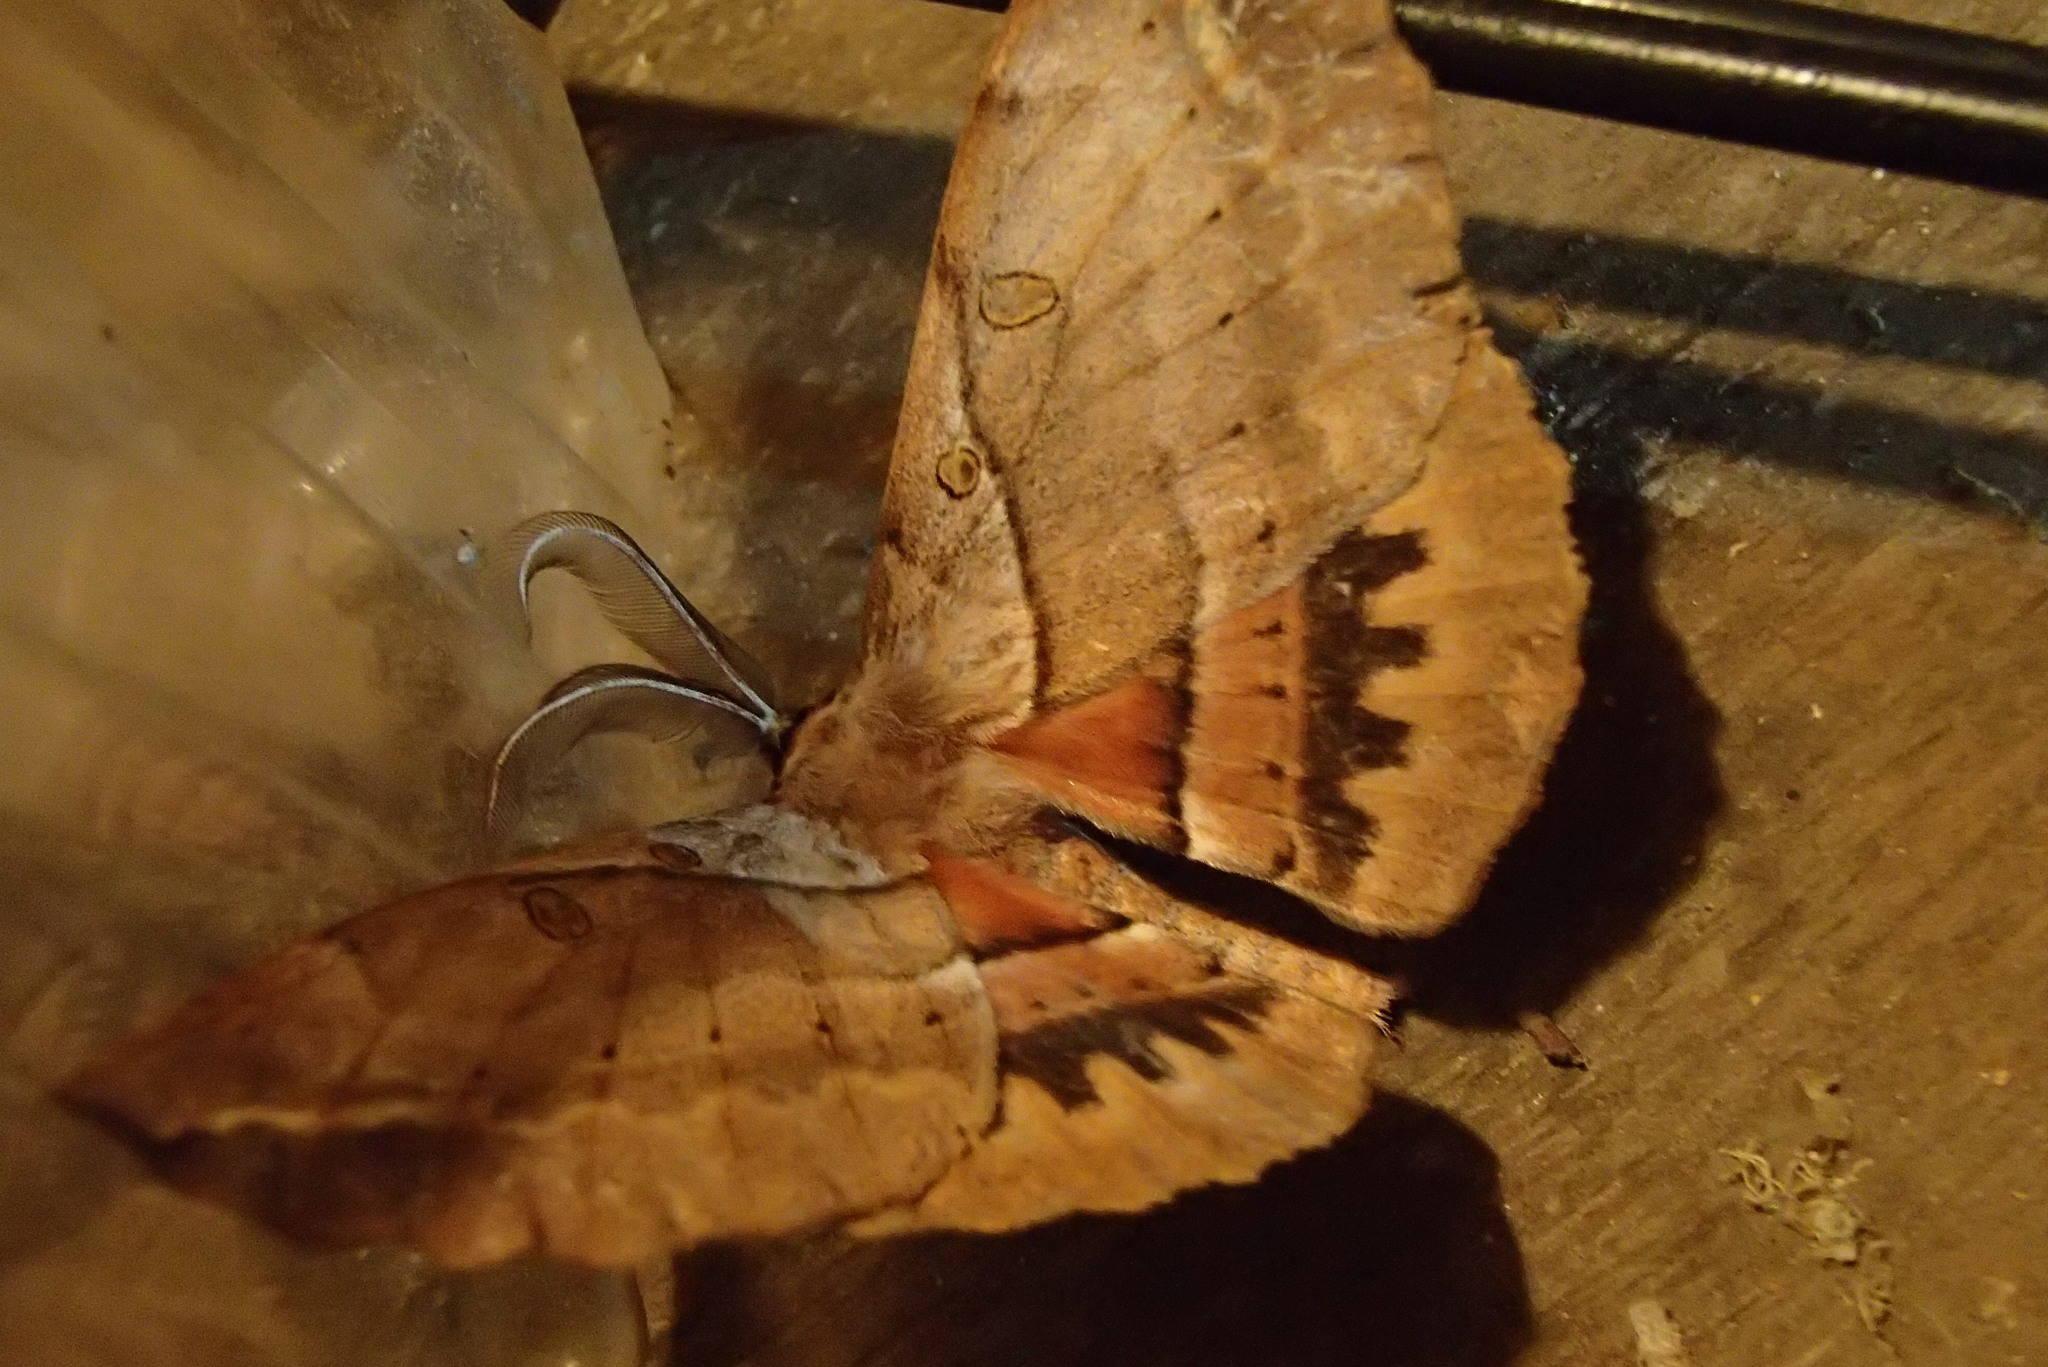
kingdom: Animalia
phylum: Arthropoda
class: Insecta
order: Lepidoptera
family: Anthelidae
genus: Chelepteryx
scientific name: Chelepteryx chalepteryx
